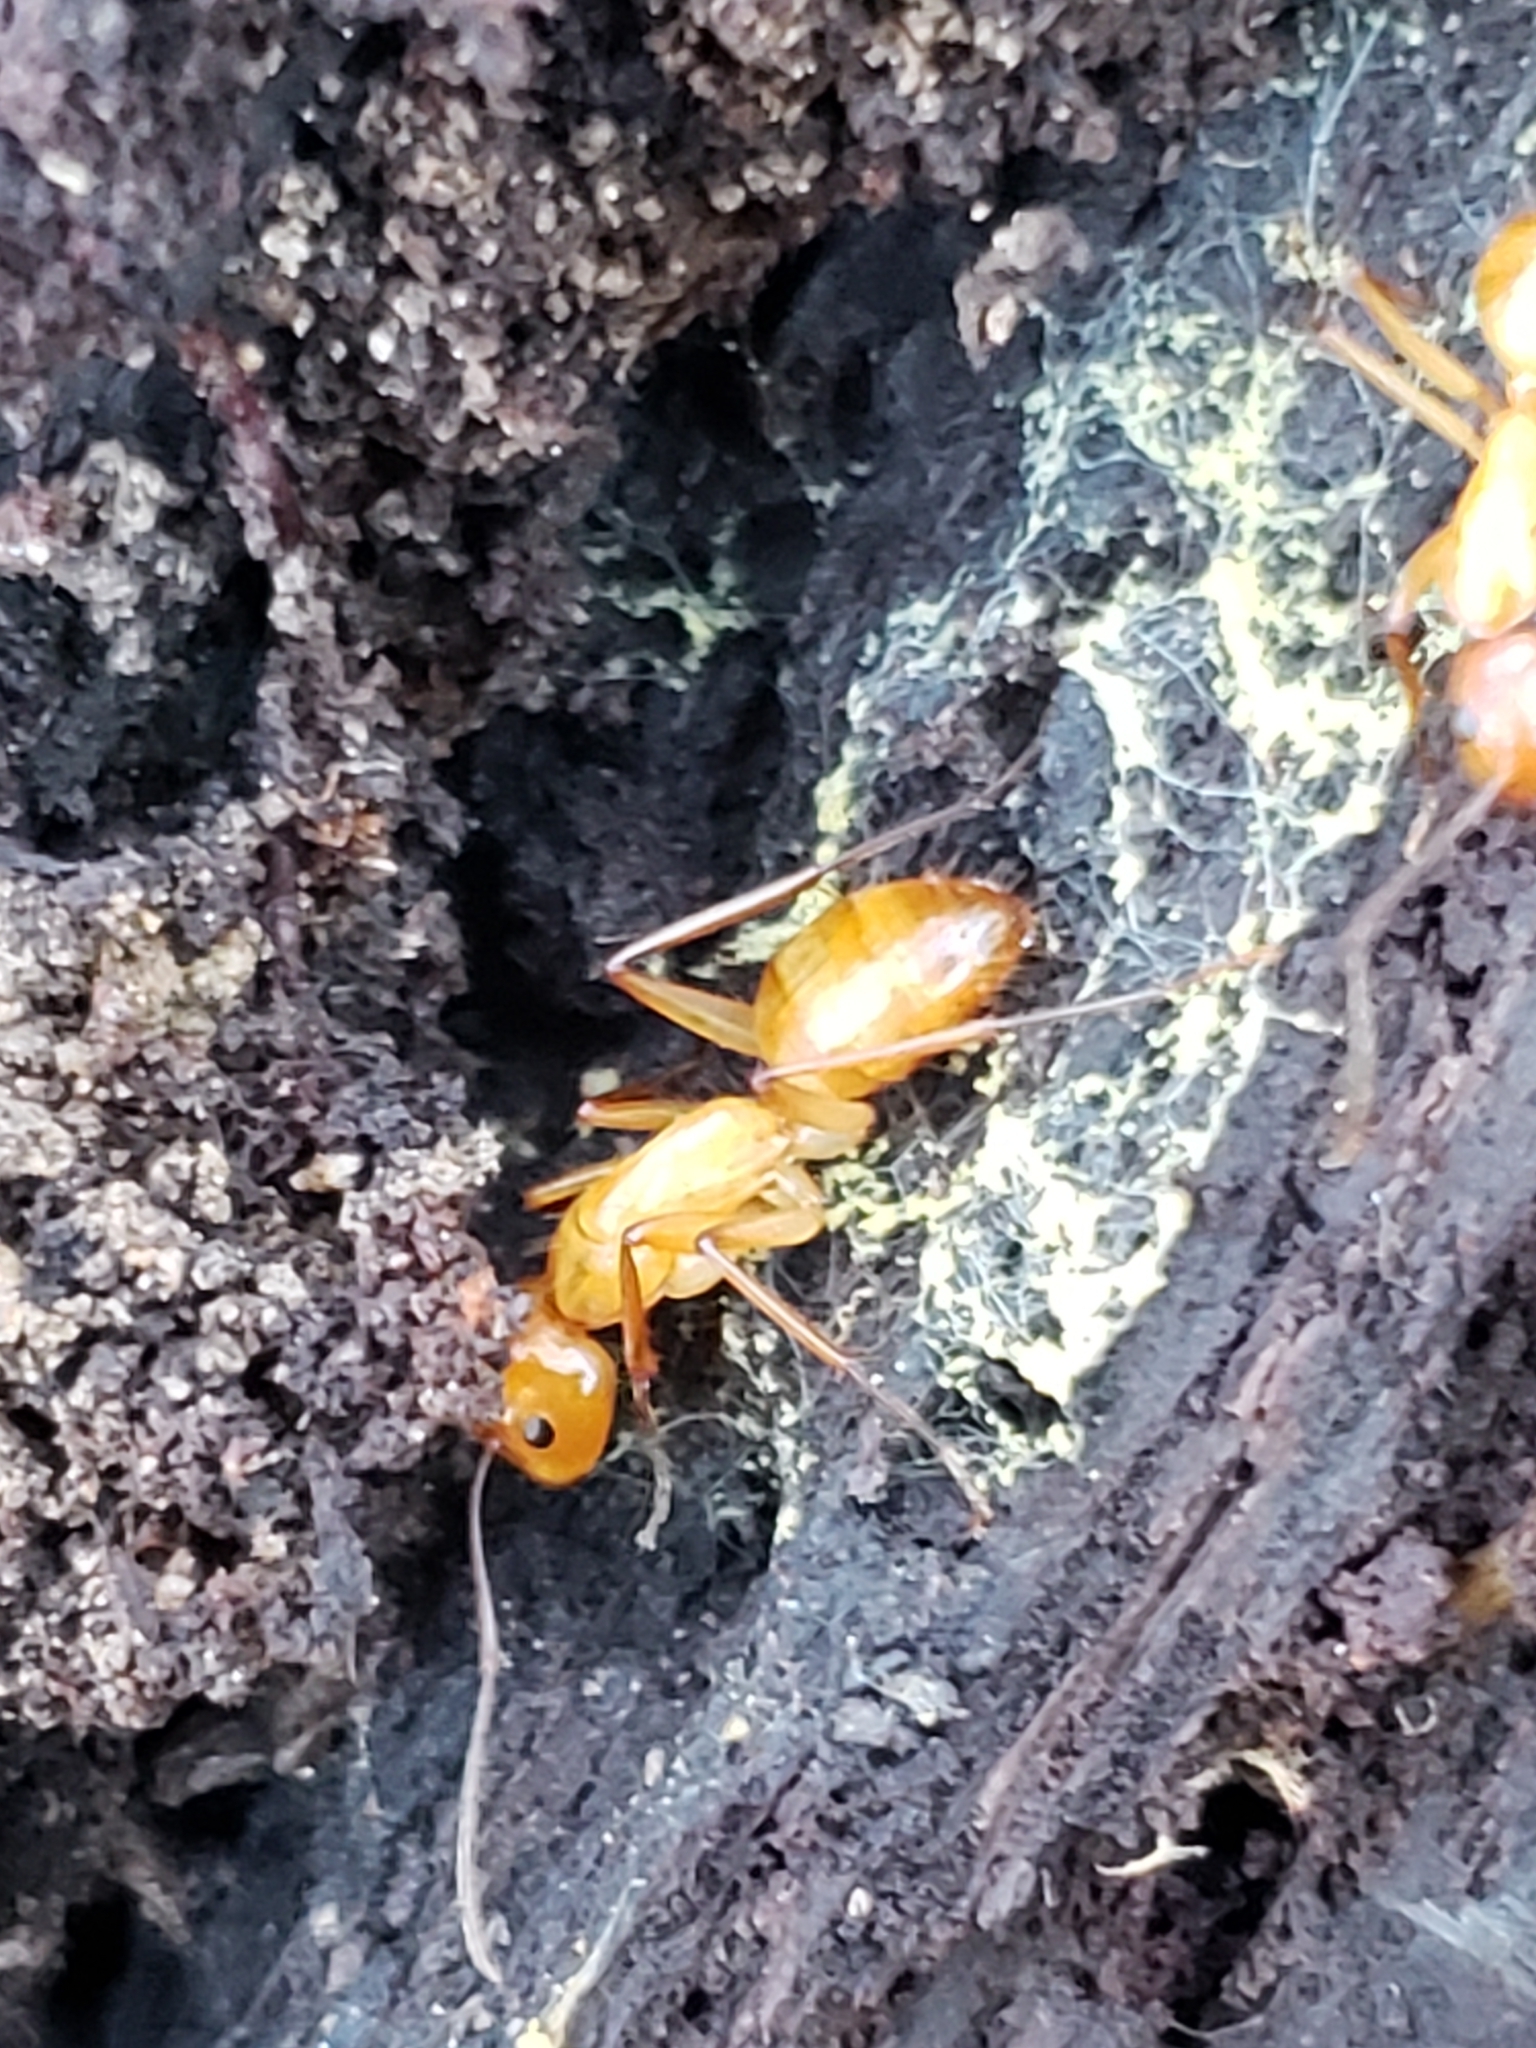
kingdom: Animalia
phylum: Arthropoda
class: Insecta
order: Hymenoptera
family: Formicidae
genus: Camponotus
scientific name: Camponotus castaneus
